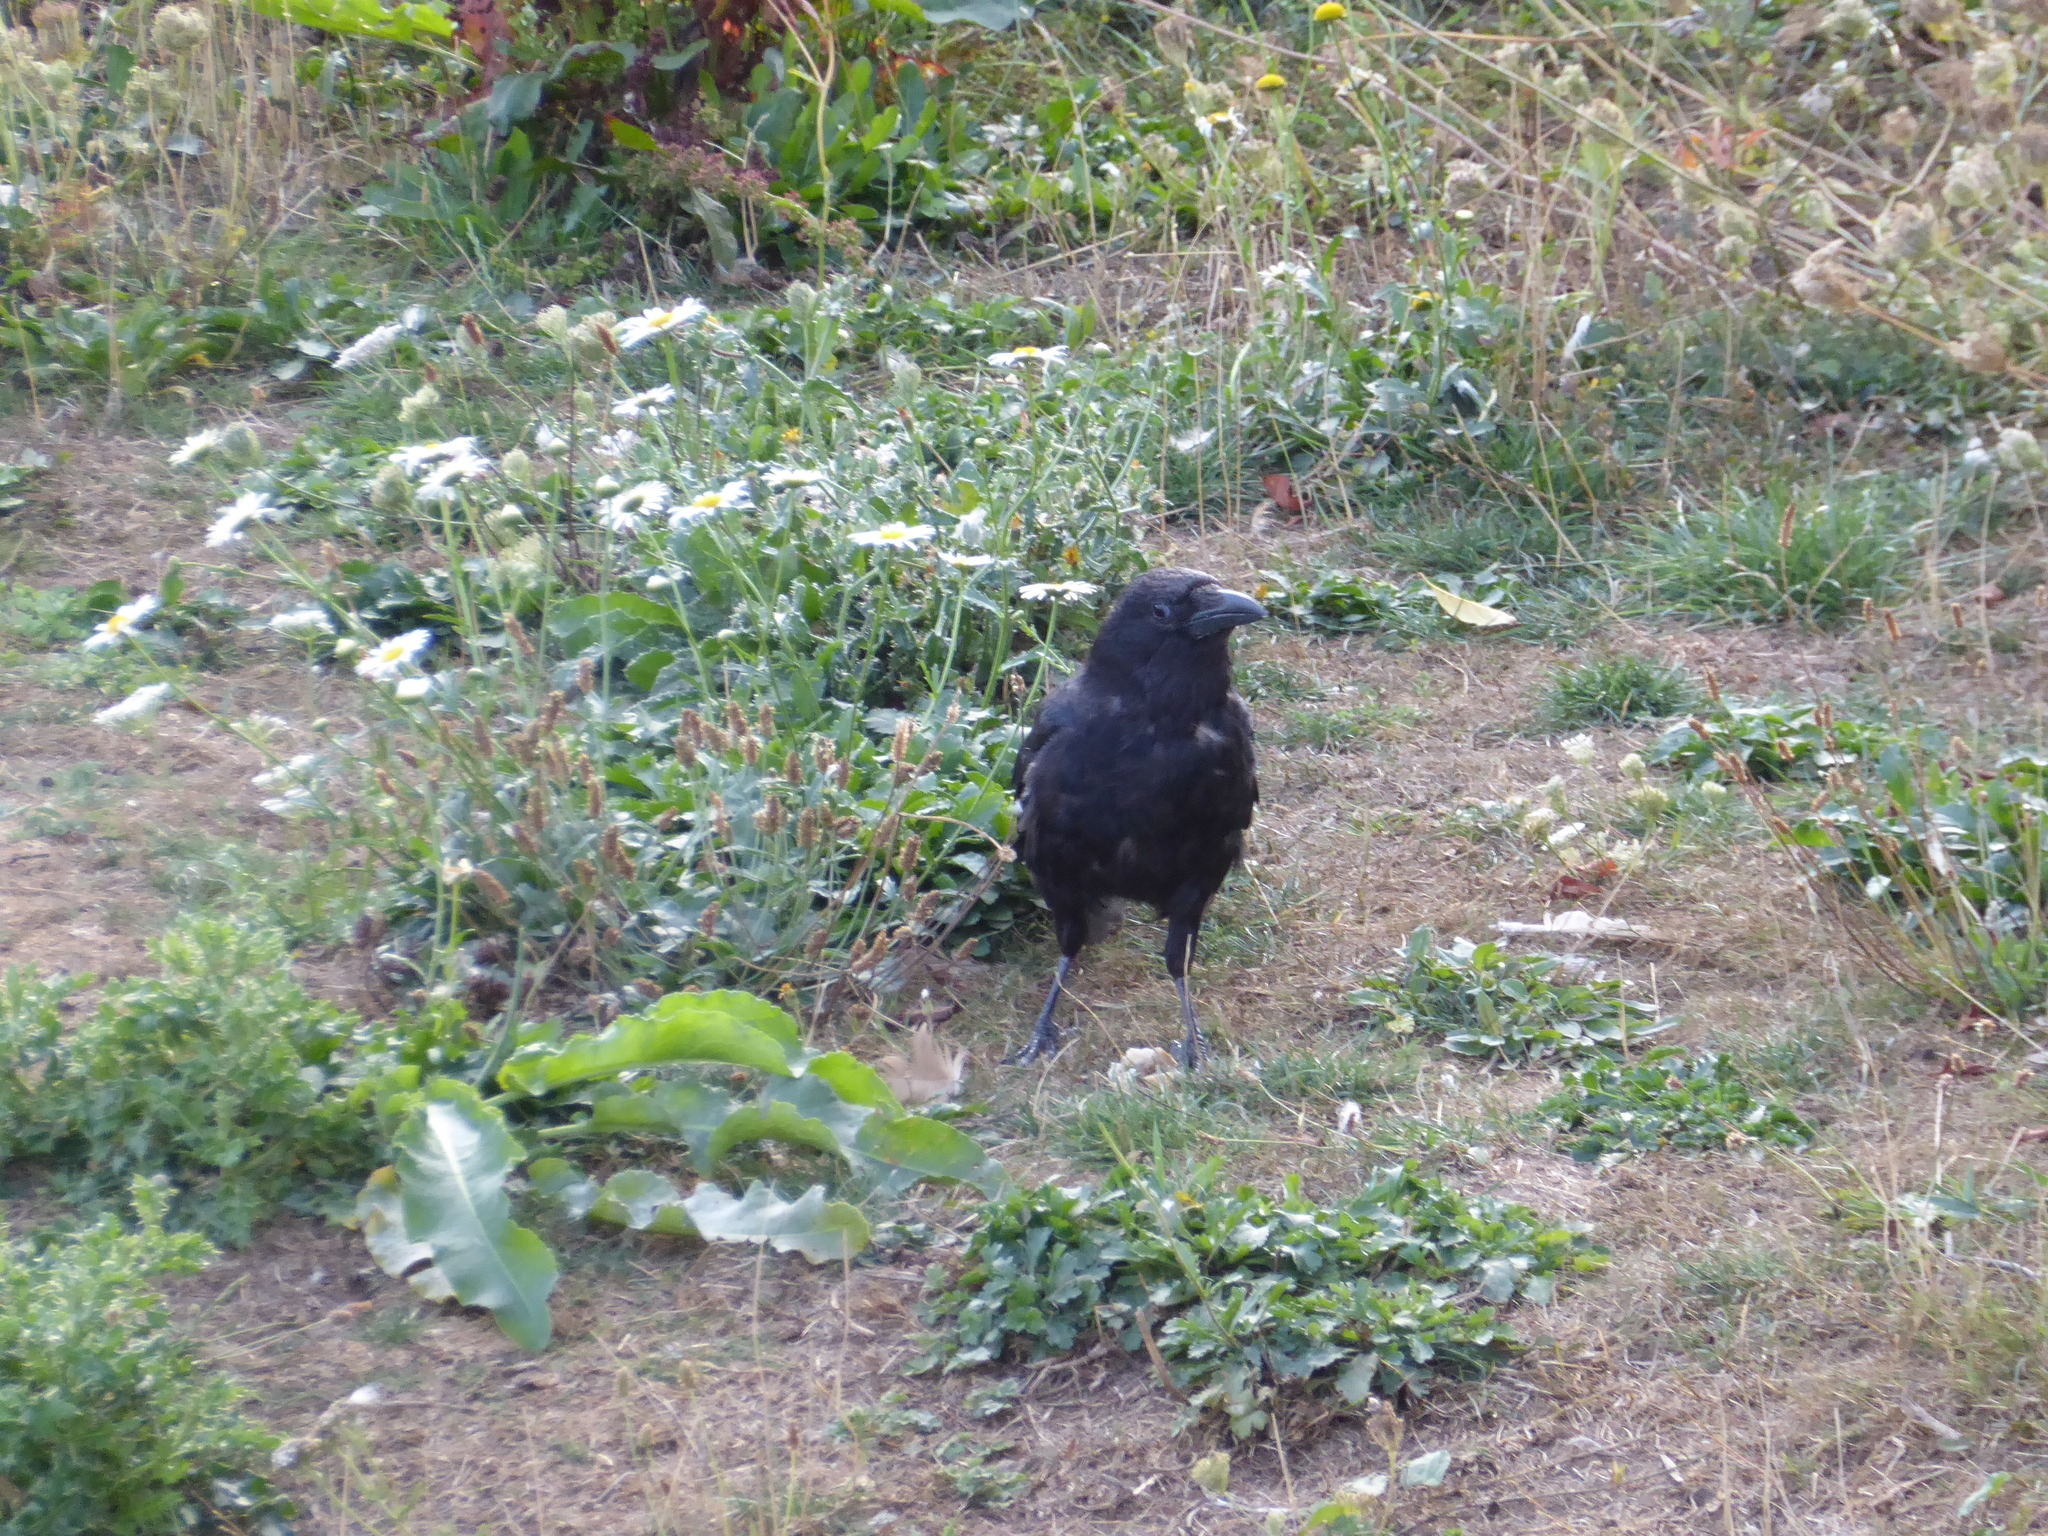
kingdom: Animalia
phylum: Chordata
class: Aves
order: Passeriformes
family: Corvidae
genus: Corvus
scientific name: Corvus corone
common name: Carrion crow
